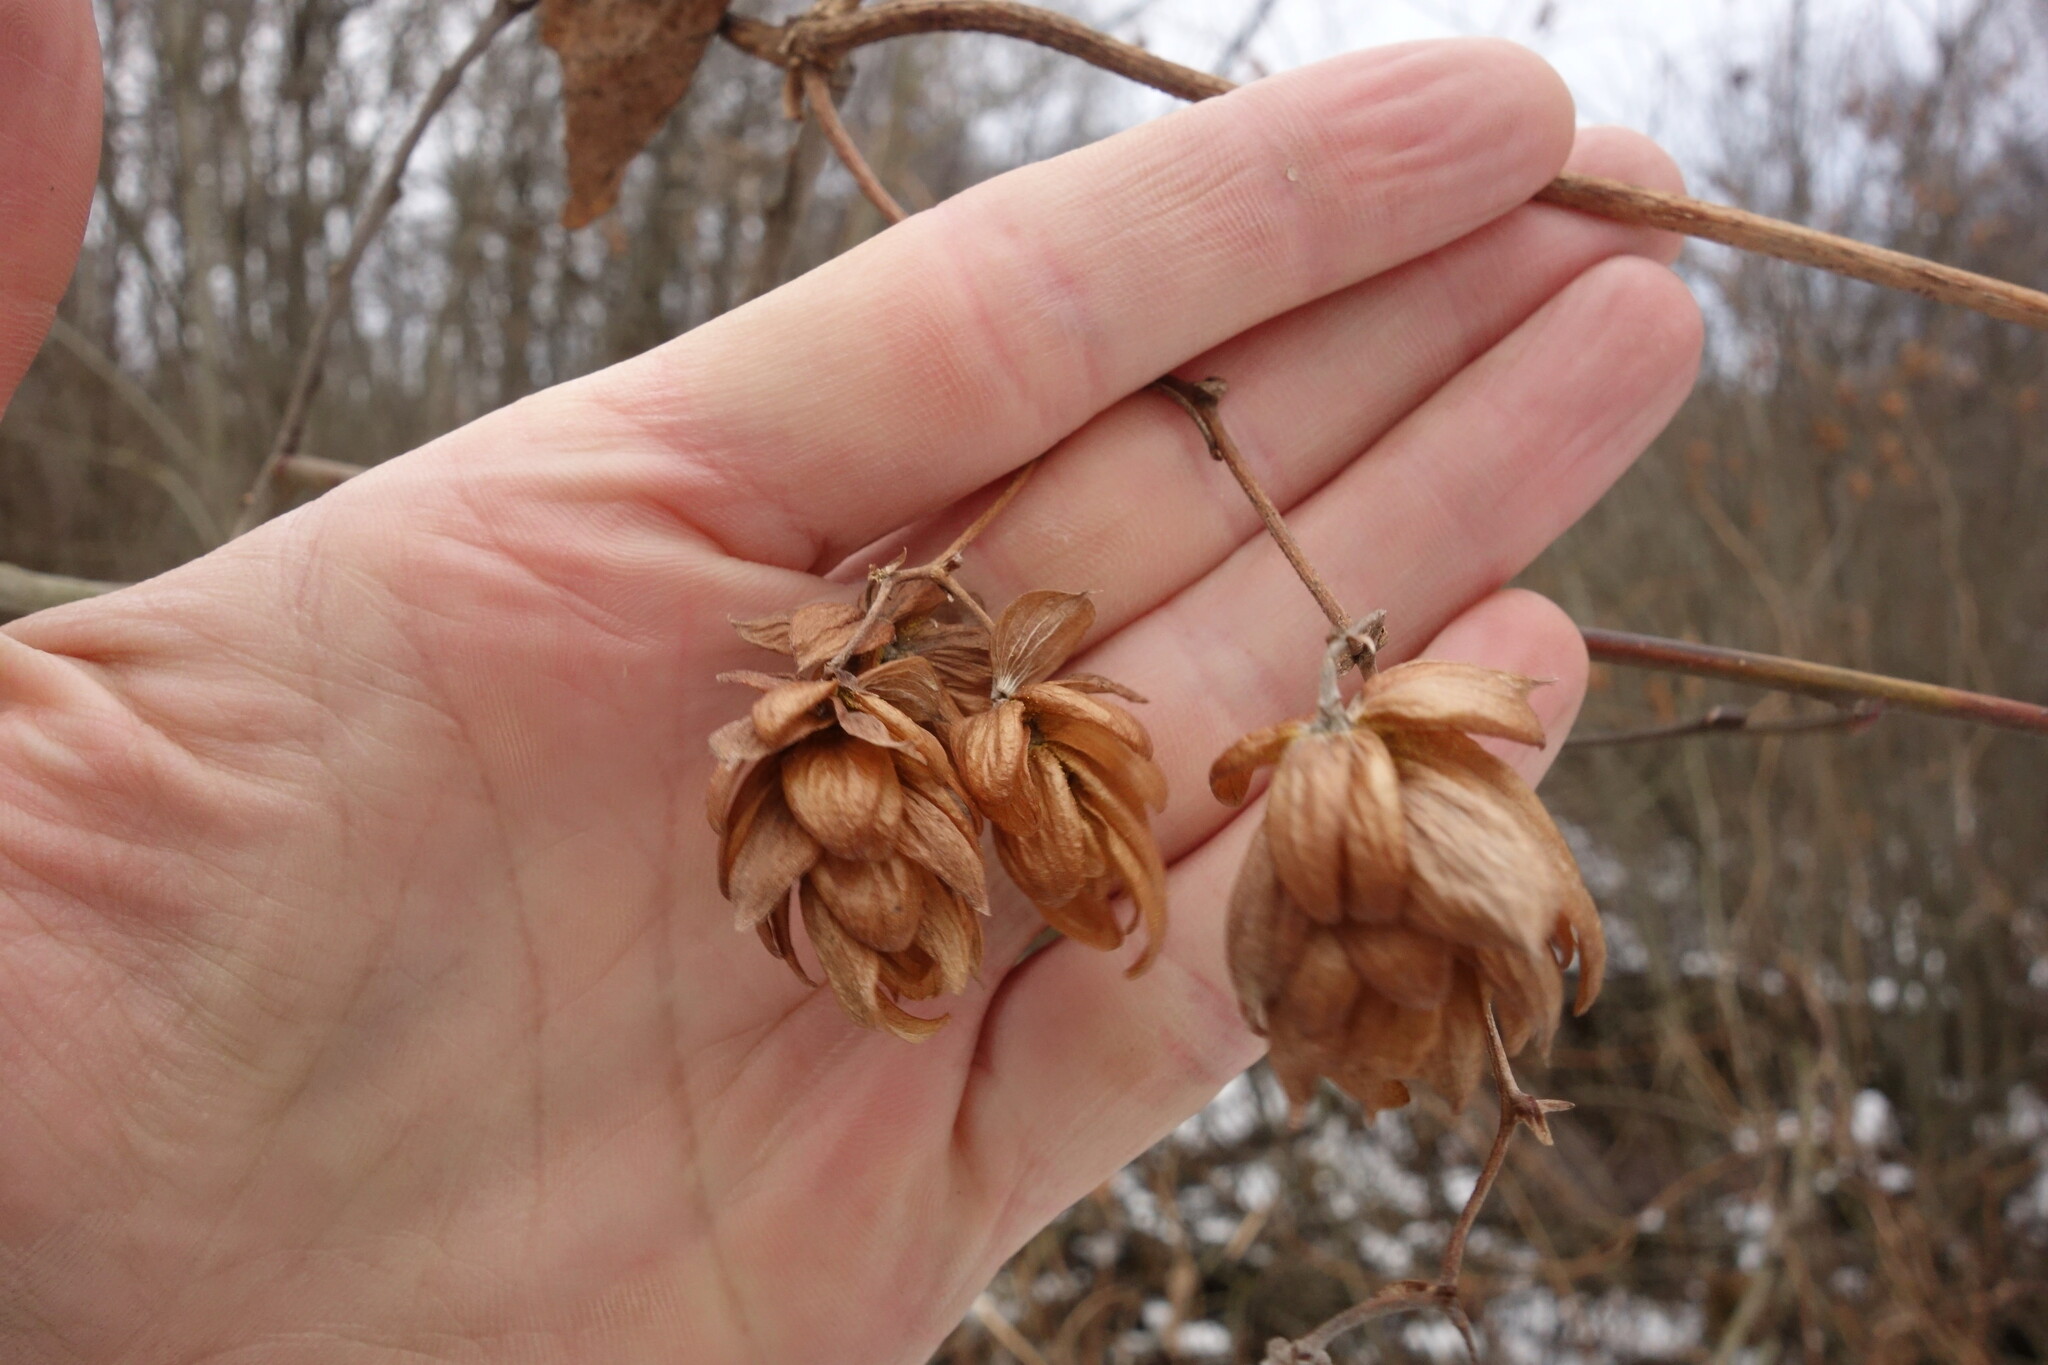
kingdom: Plantae
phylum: Tracheophyta
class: Magnoliopsida
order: Rosales
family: Cannabaceae
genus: Humulus
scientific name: Humulus lupulus
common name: Hop
